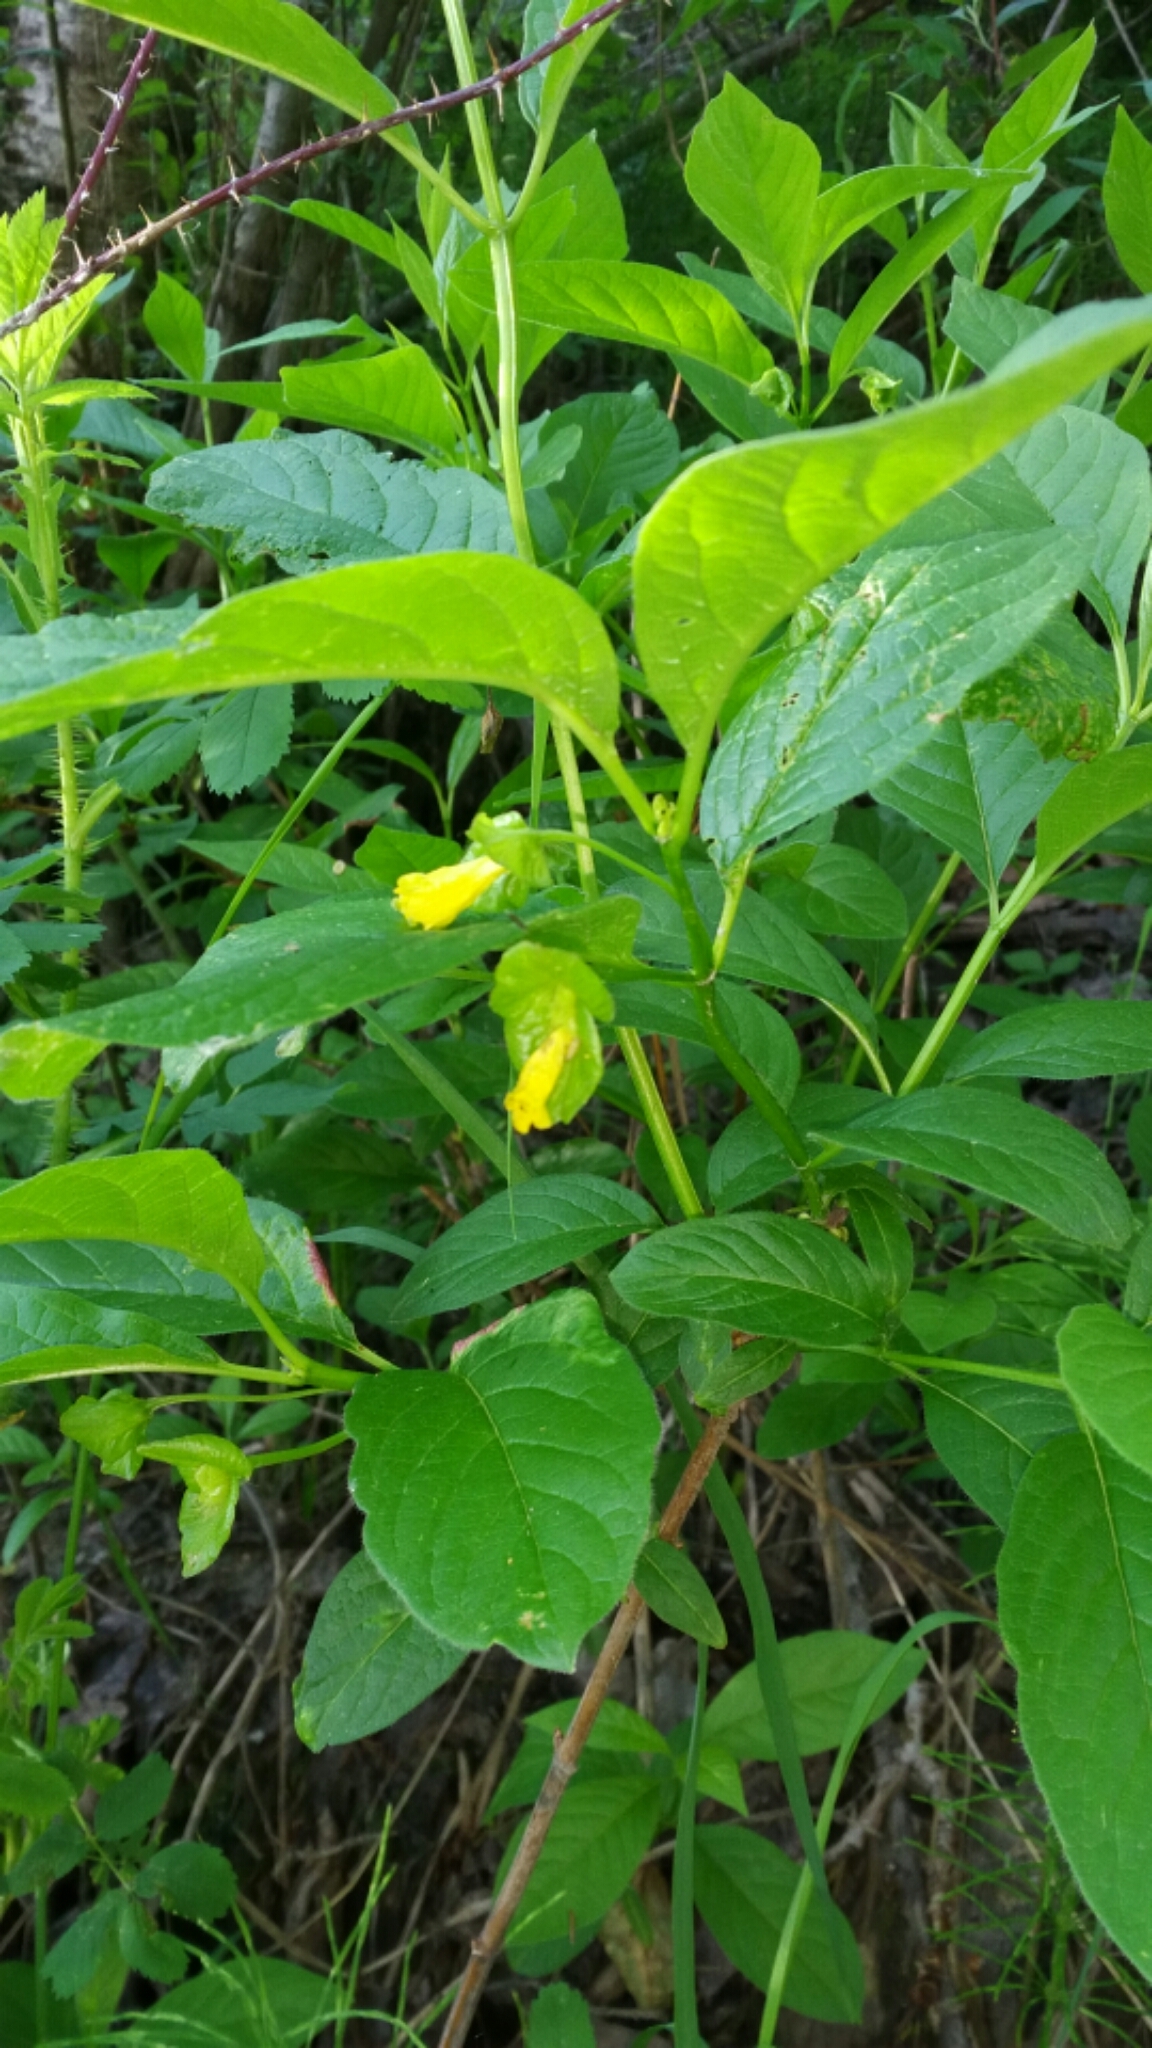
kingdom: Plantae
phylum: Tracheophyta
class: Magnoliopsida
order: Dipsacales
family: Caprifoliaceae
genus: Lonicera
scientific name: Lonicera involucrata
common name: Californian honeysuckle
